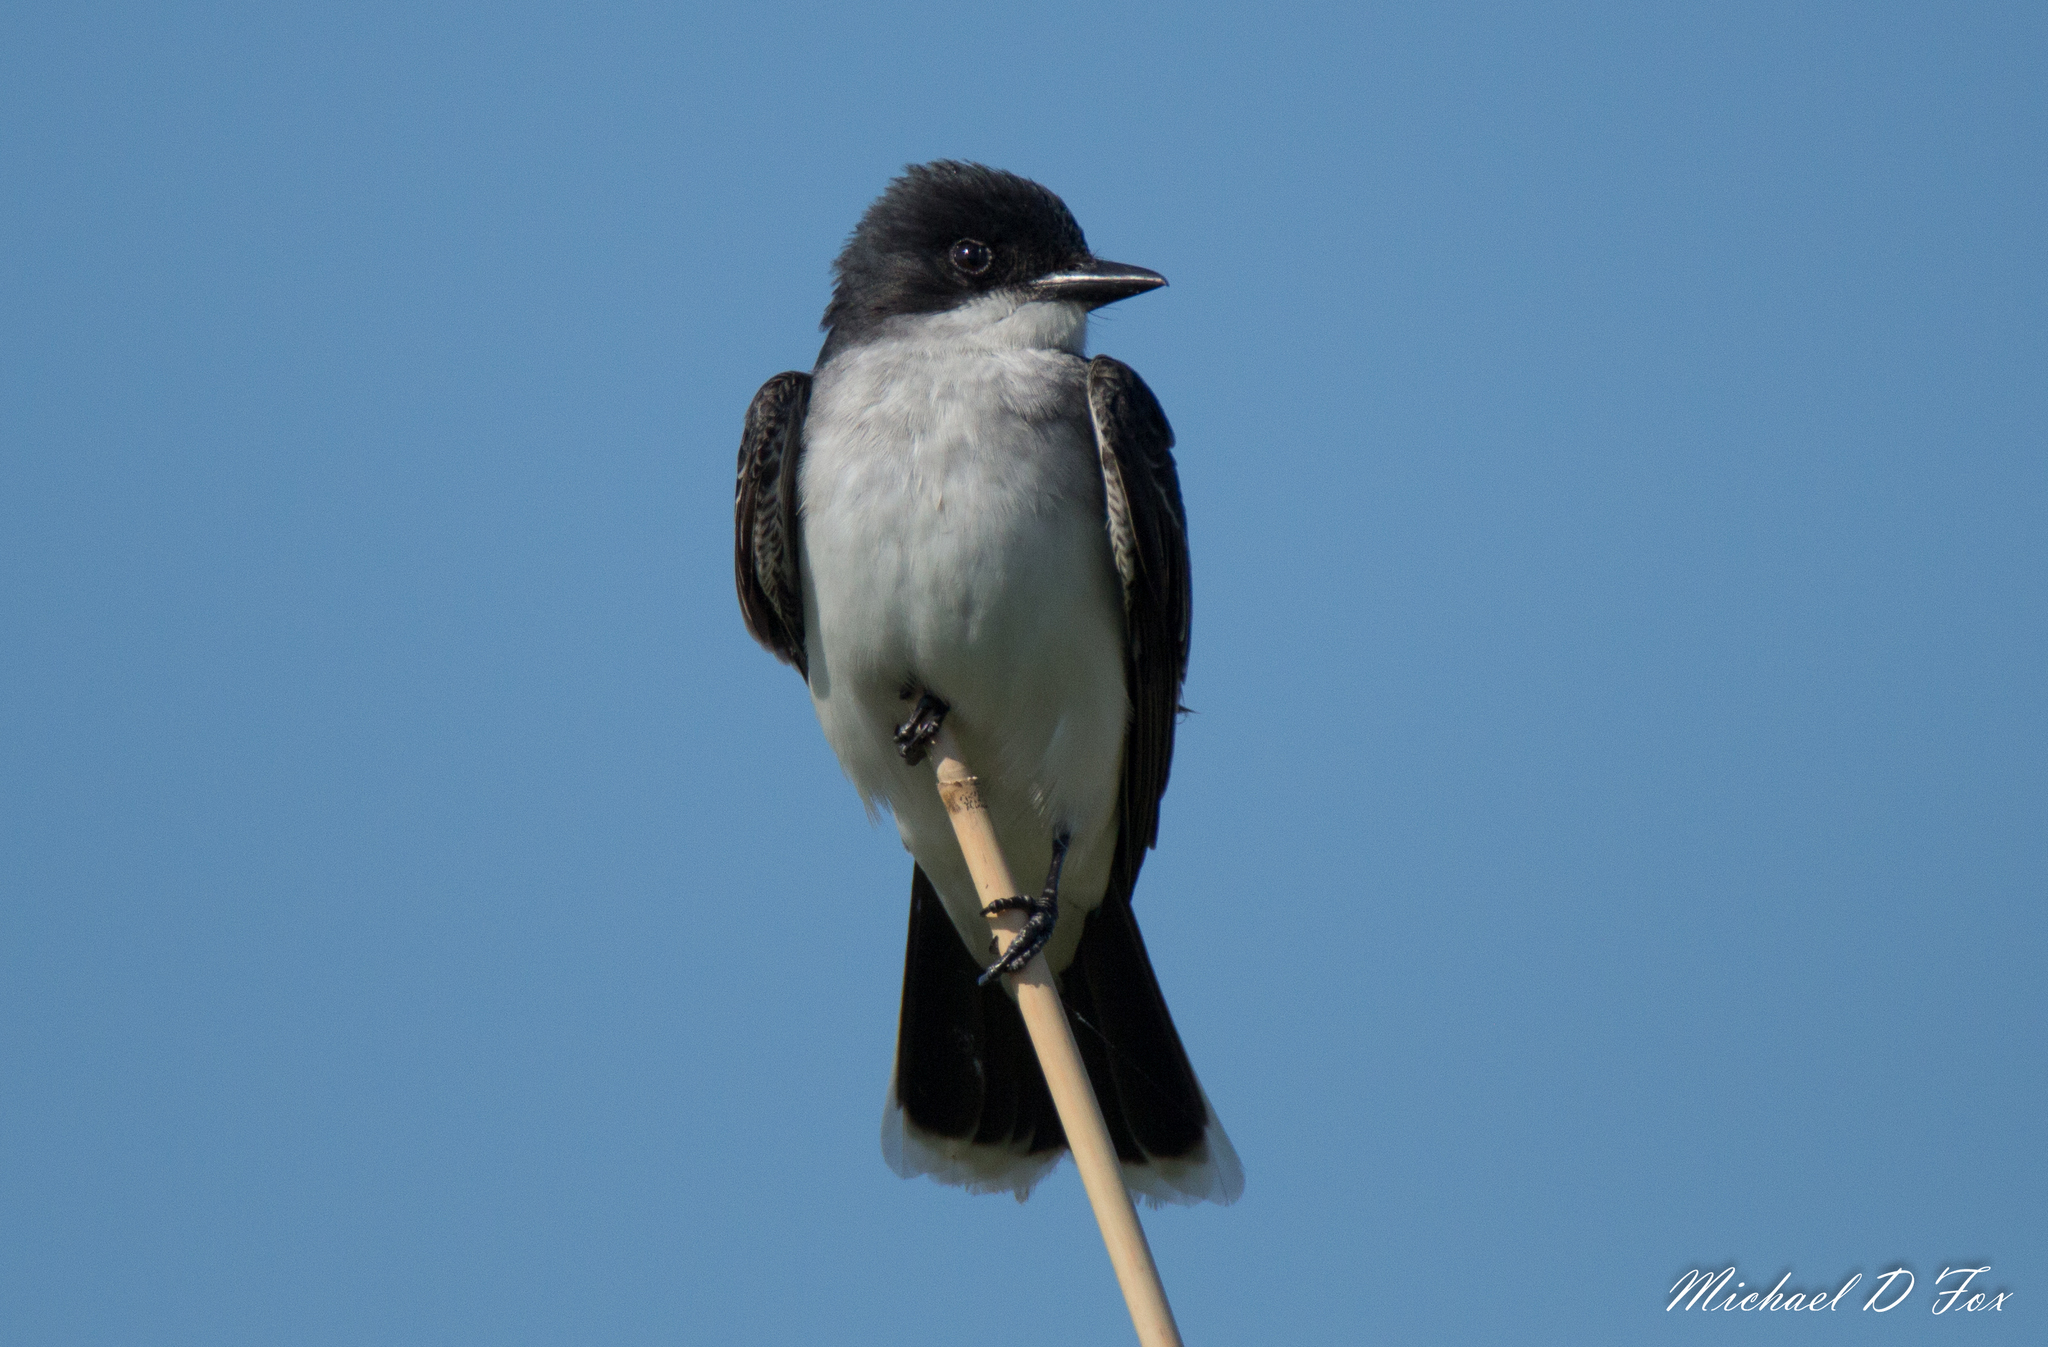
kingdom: Animalia
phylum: Chordata
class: Aves
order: Passeriformes
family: Tyrannidae
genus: Tyrannus
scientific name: Tyrannus tyrannus
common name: Eastern kingbird
